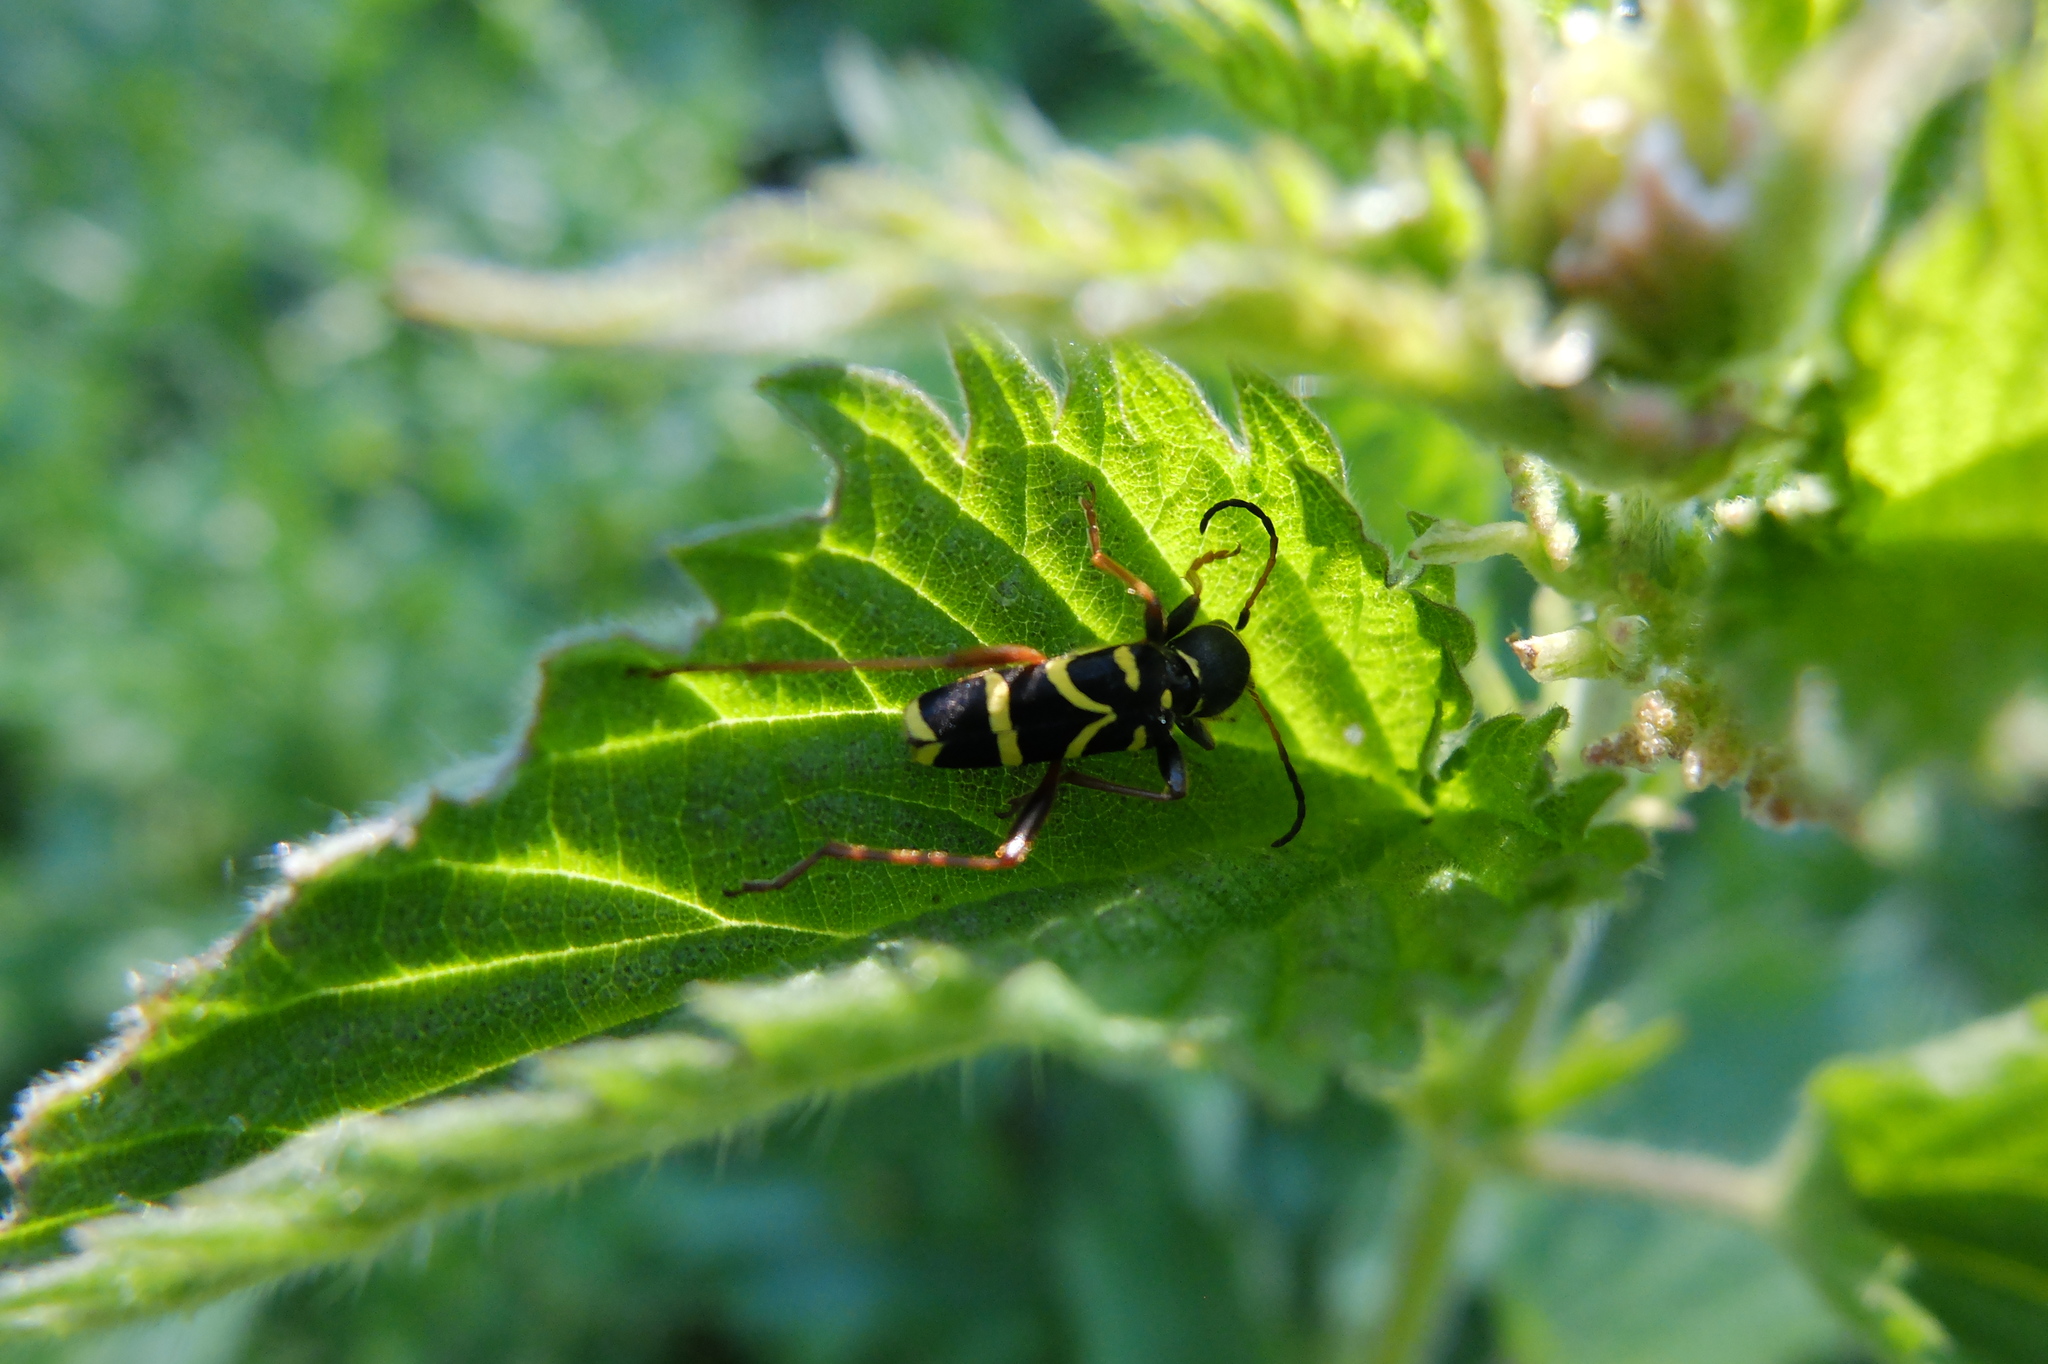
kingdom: Animalia
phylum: Arthropoda
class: Insecta
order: Coleoptera
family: Cerambycidae
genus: Clytus
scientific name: Clytus arietis
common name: Wasp beetle
